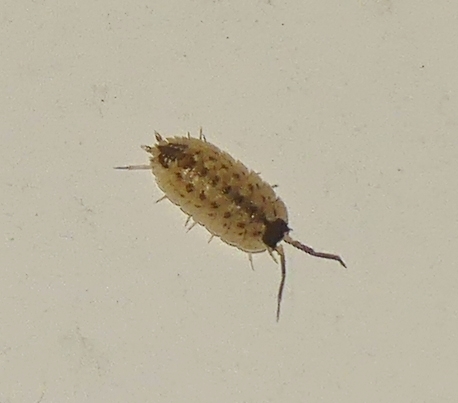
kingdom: Animalia
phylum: Arthropoda
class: Malacostraca
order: Isopoda
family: Porcellionidae
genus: Porcellio
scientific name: Porcellio spinicornis
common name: Painted woodlouse
